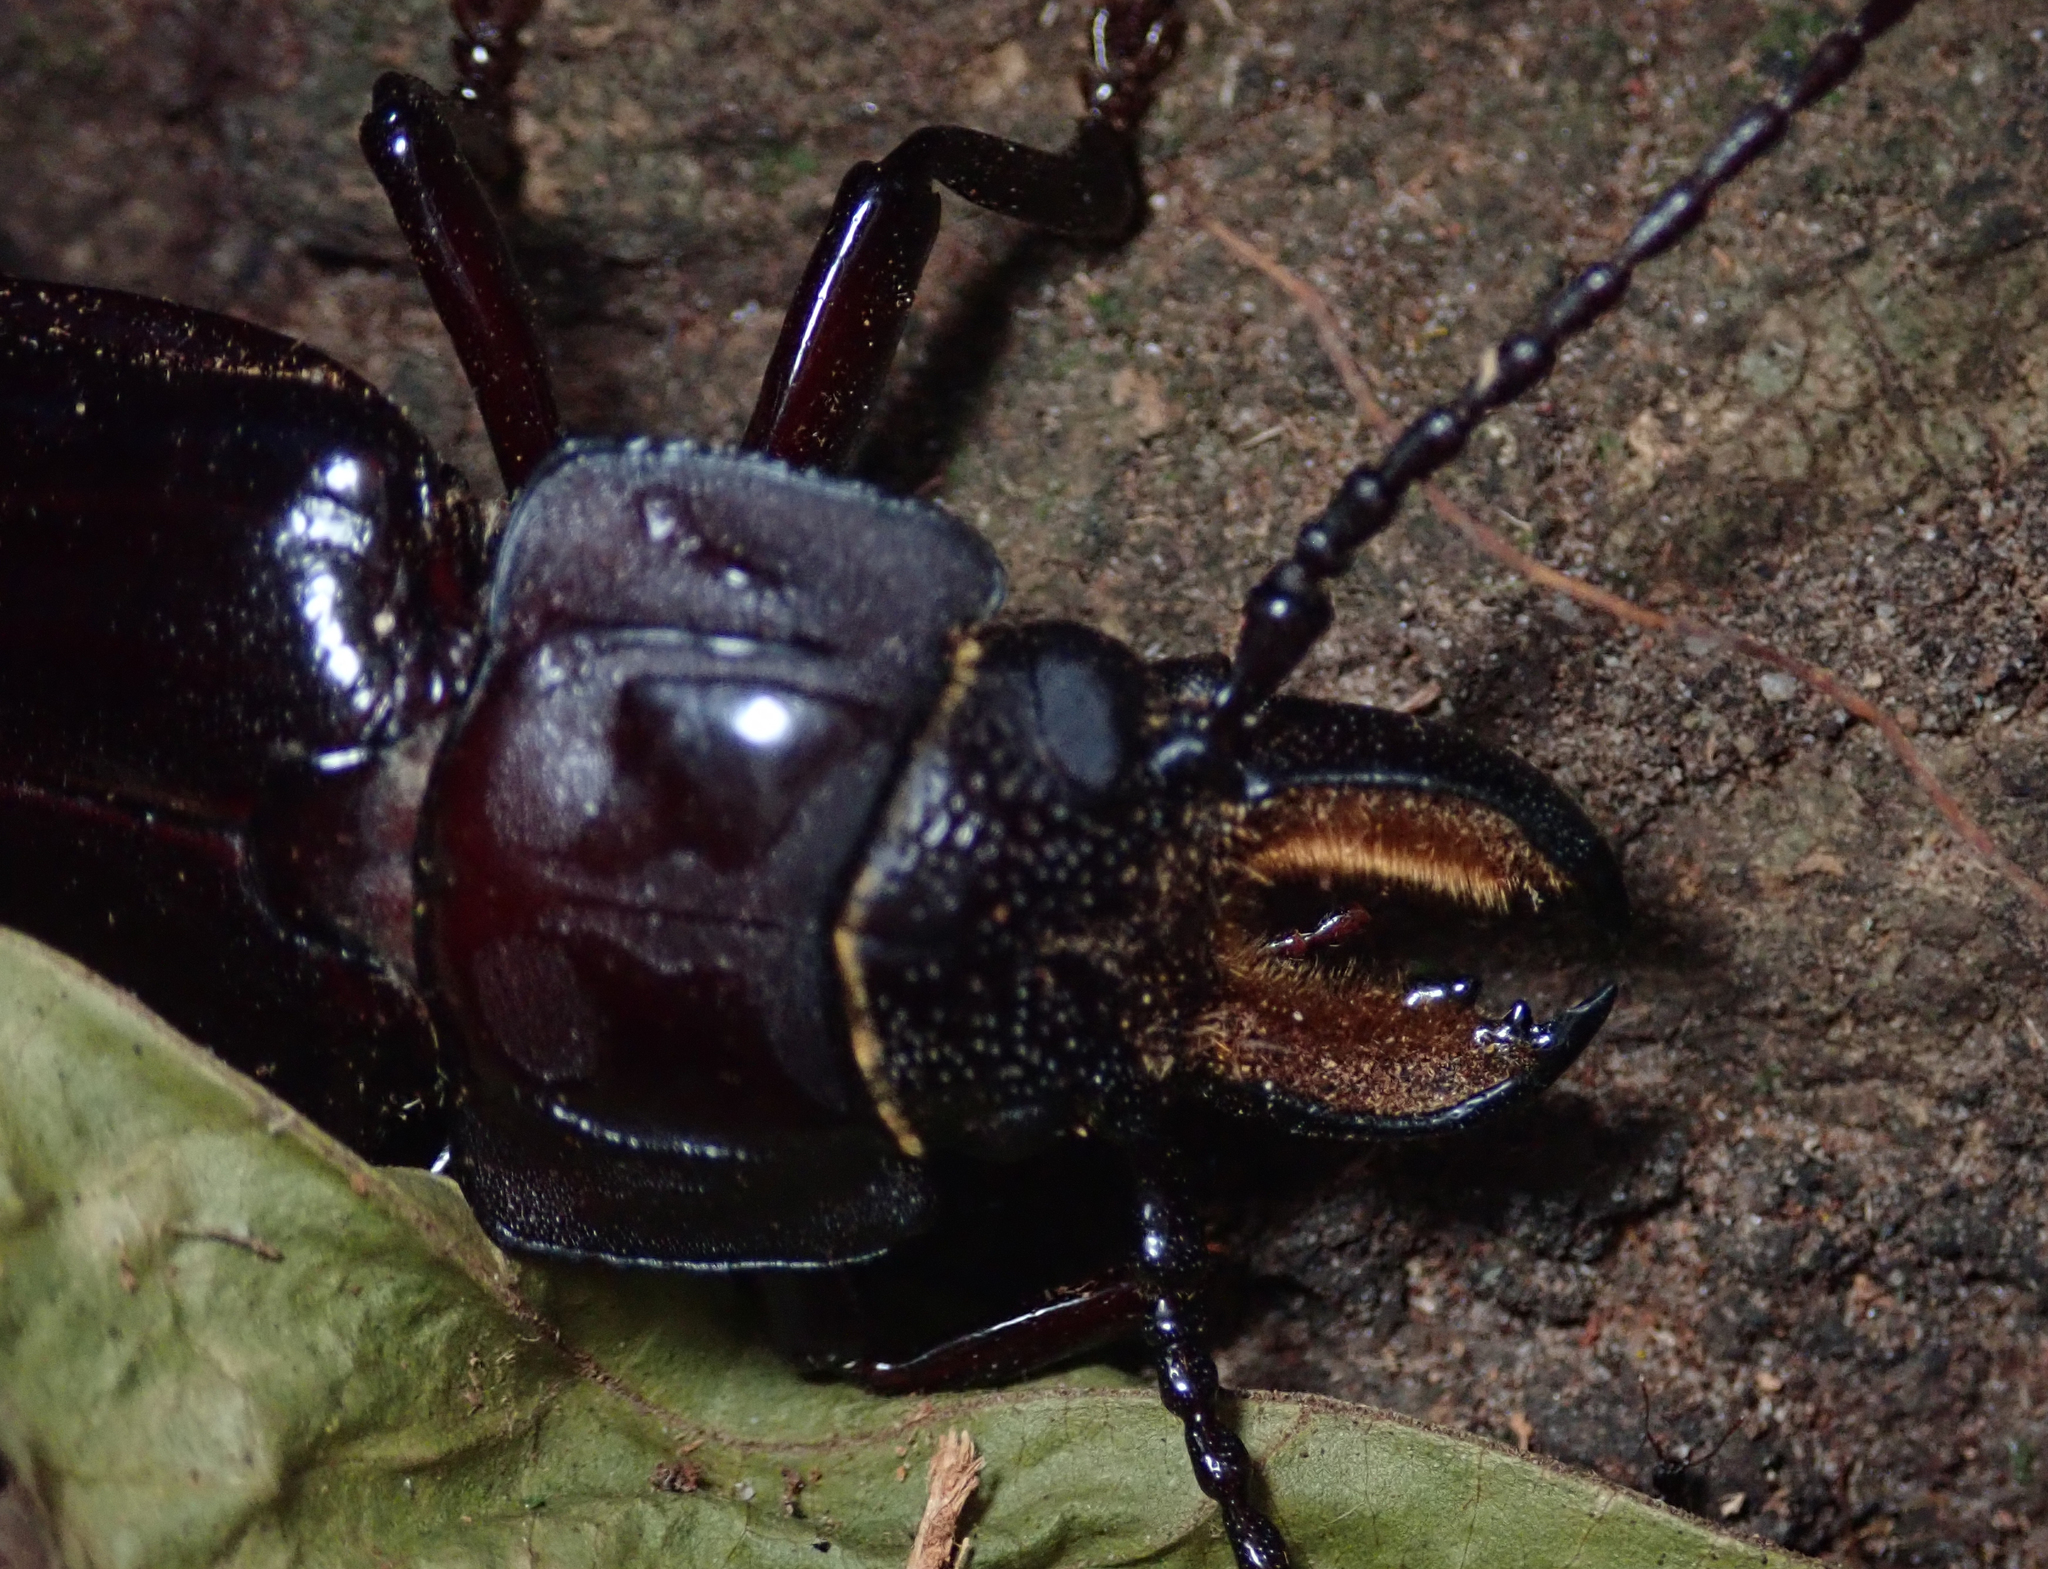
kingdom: Animalia
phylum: Arthropoda
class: Insecta
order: Coleoptera
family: Cerambycidae
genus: Mallodon
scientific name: Mallodon downesii
